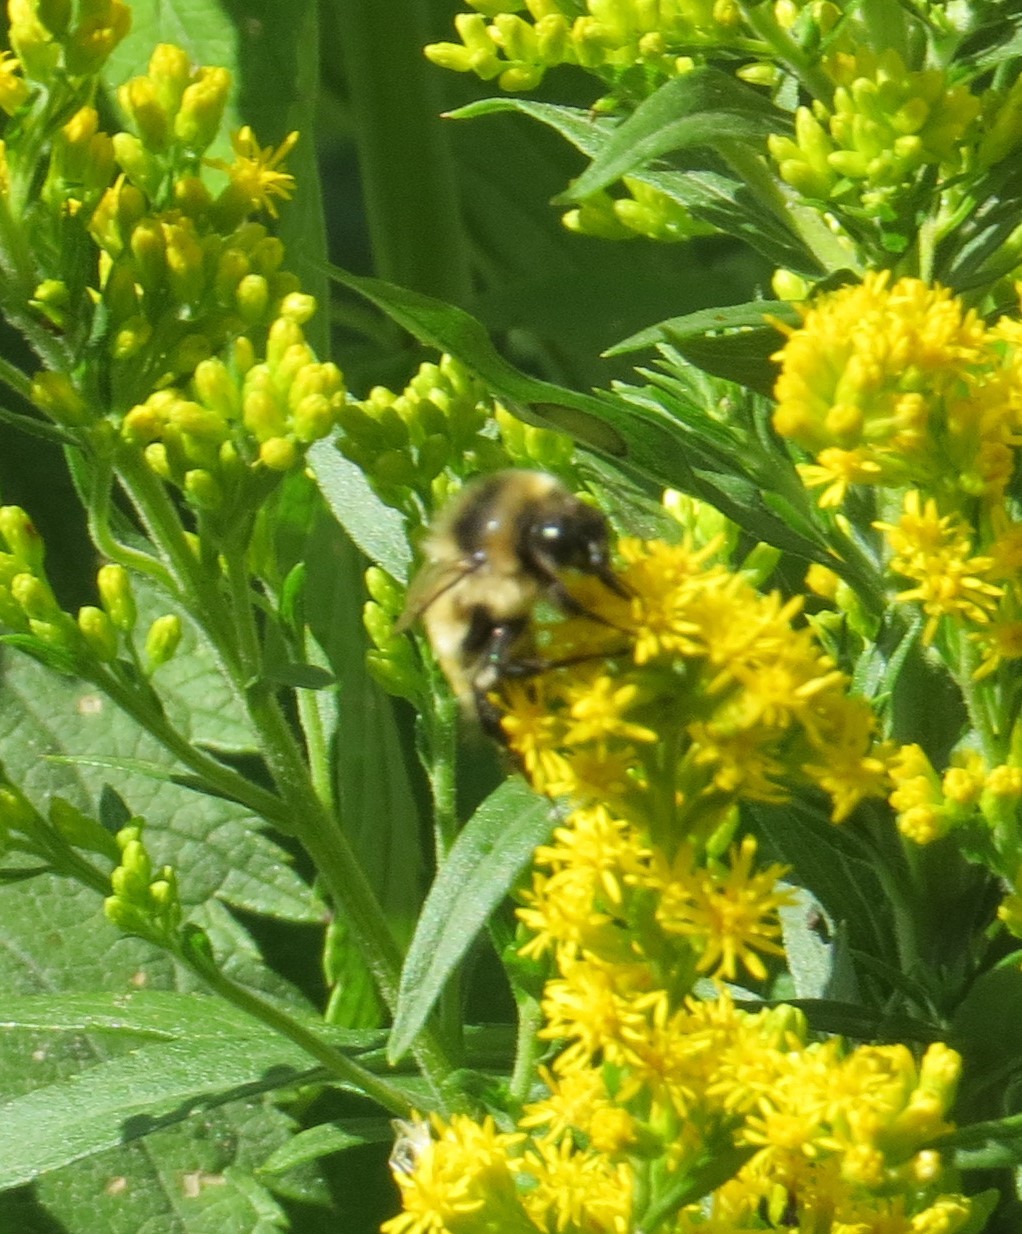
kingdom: Animalia
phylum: Arthropoda
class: Insecta
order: Hymenoptera
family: Apidae
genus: Bombus
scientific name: Bombus rufocinctus
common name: Red-belted bumble bee
